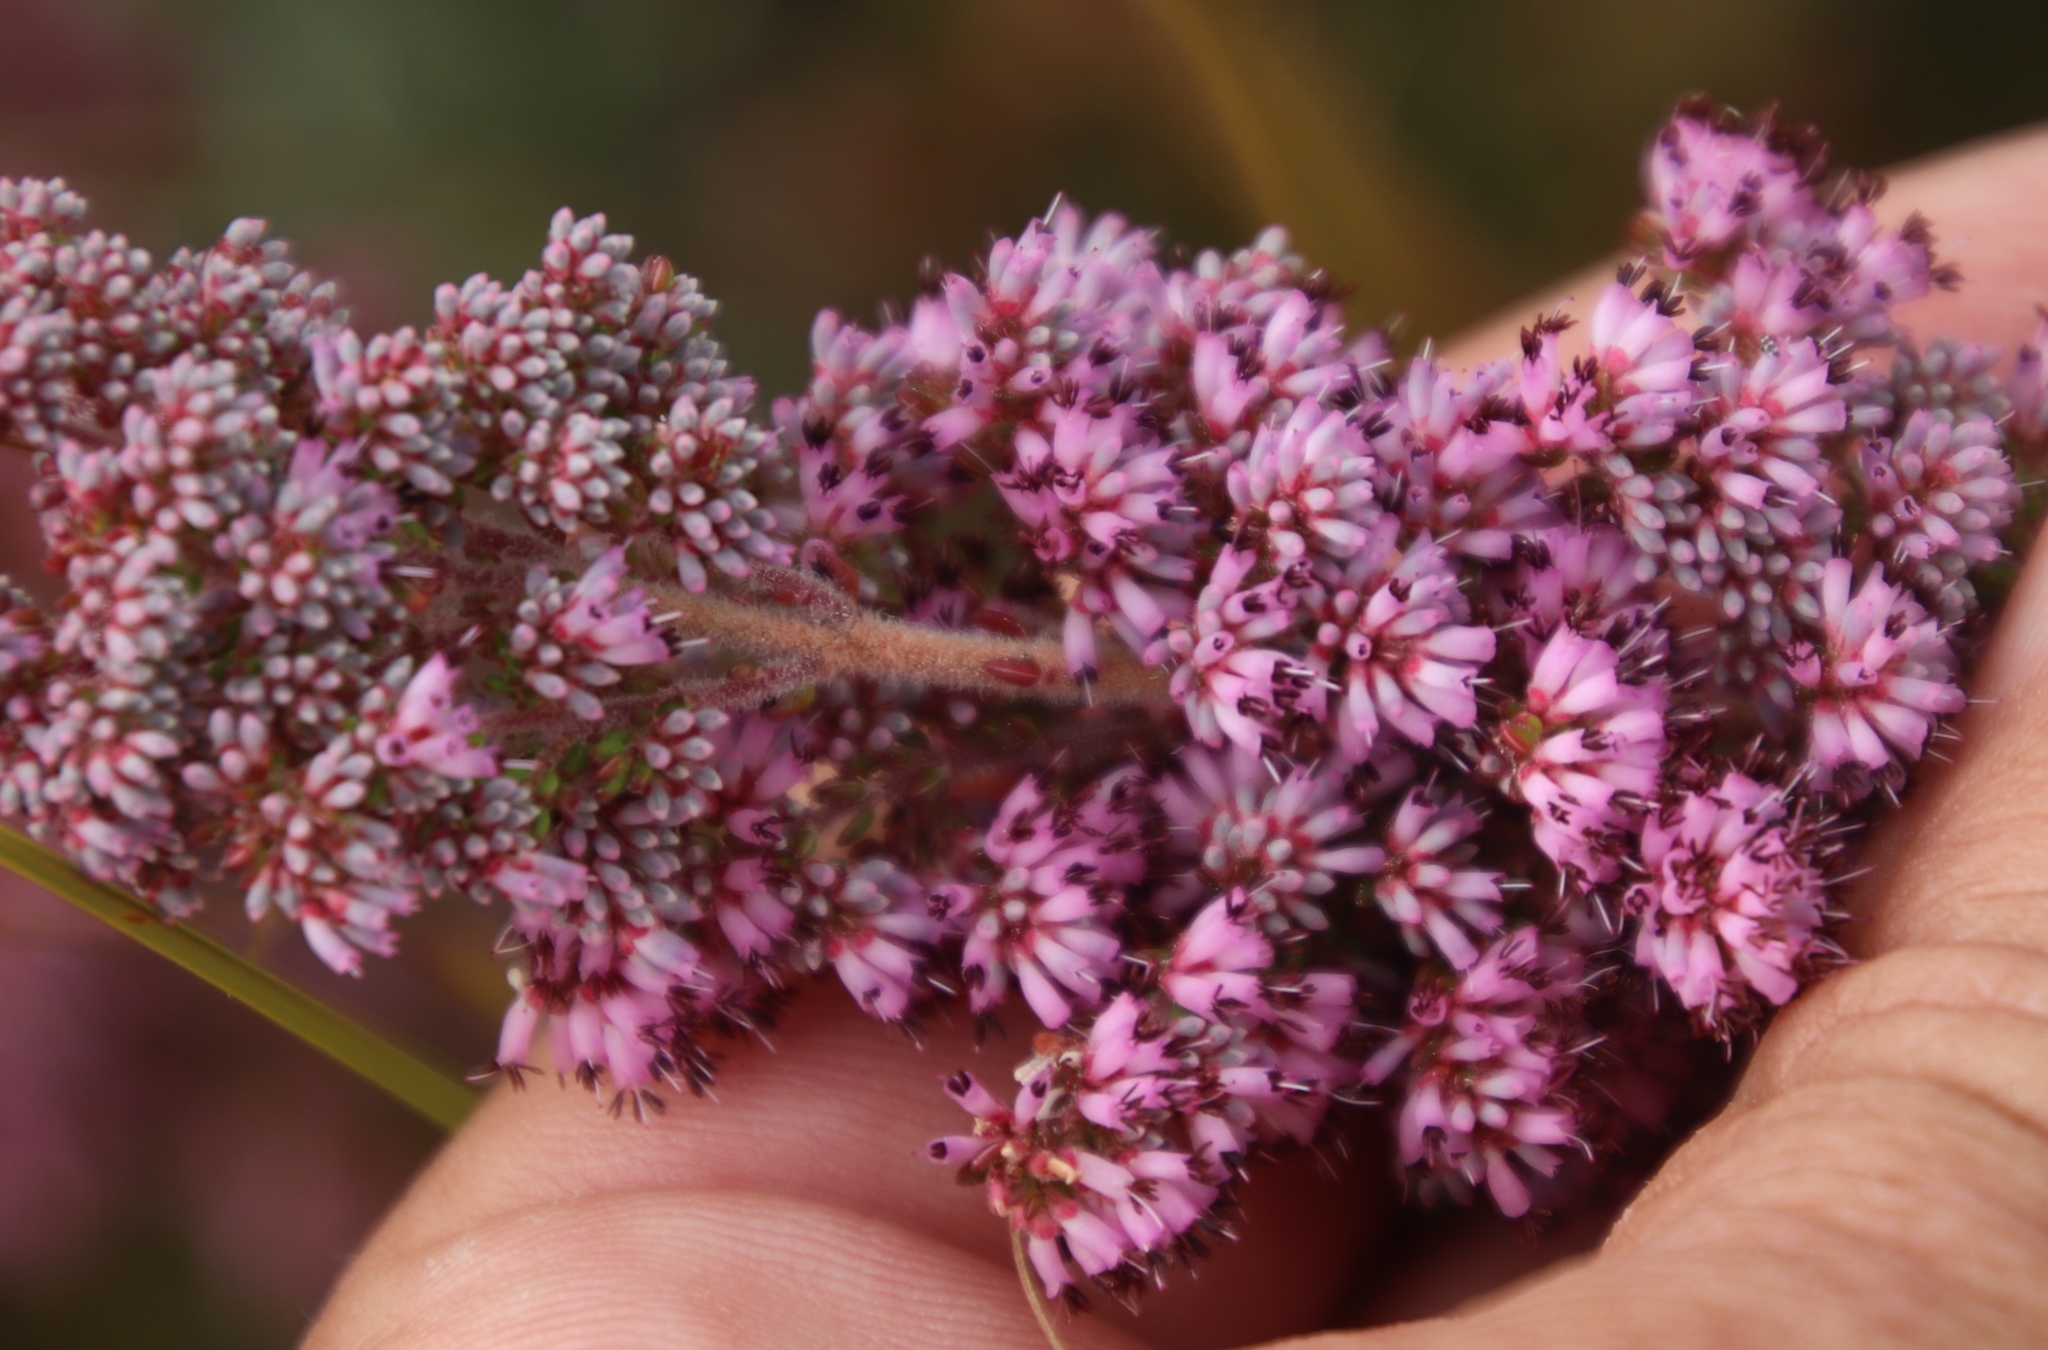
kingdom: Plantae
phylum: Tracheophyta
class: Magnoliopsida
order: Ericales
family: Ericaceae
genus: Erica
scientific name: Erica williamsiorum
